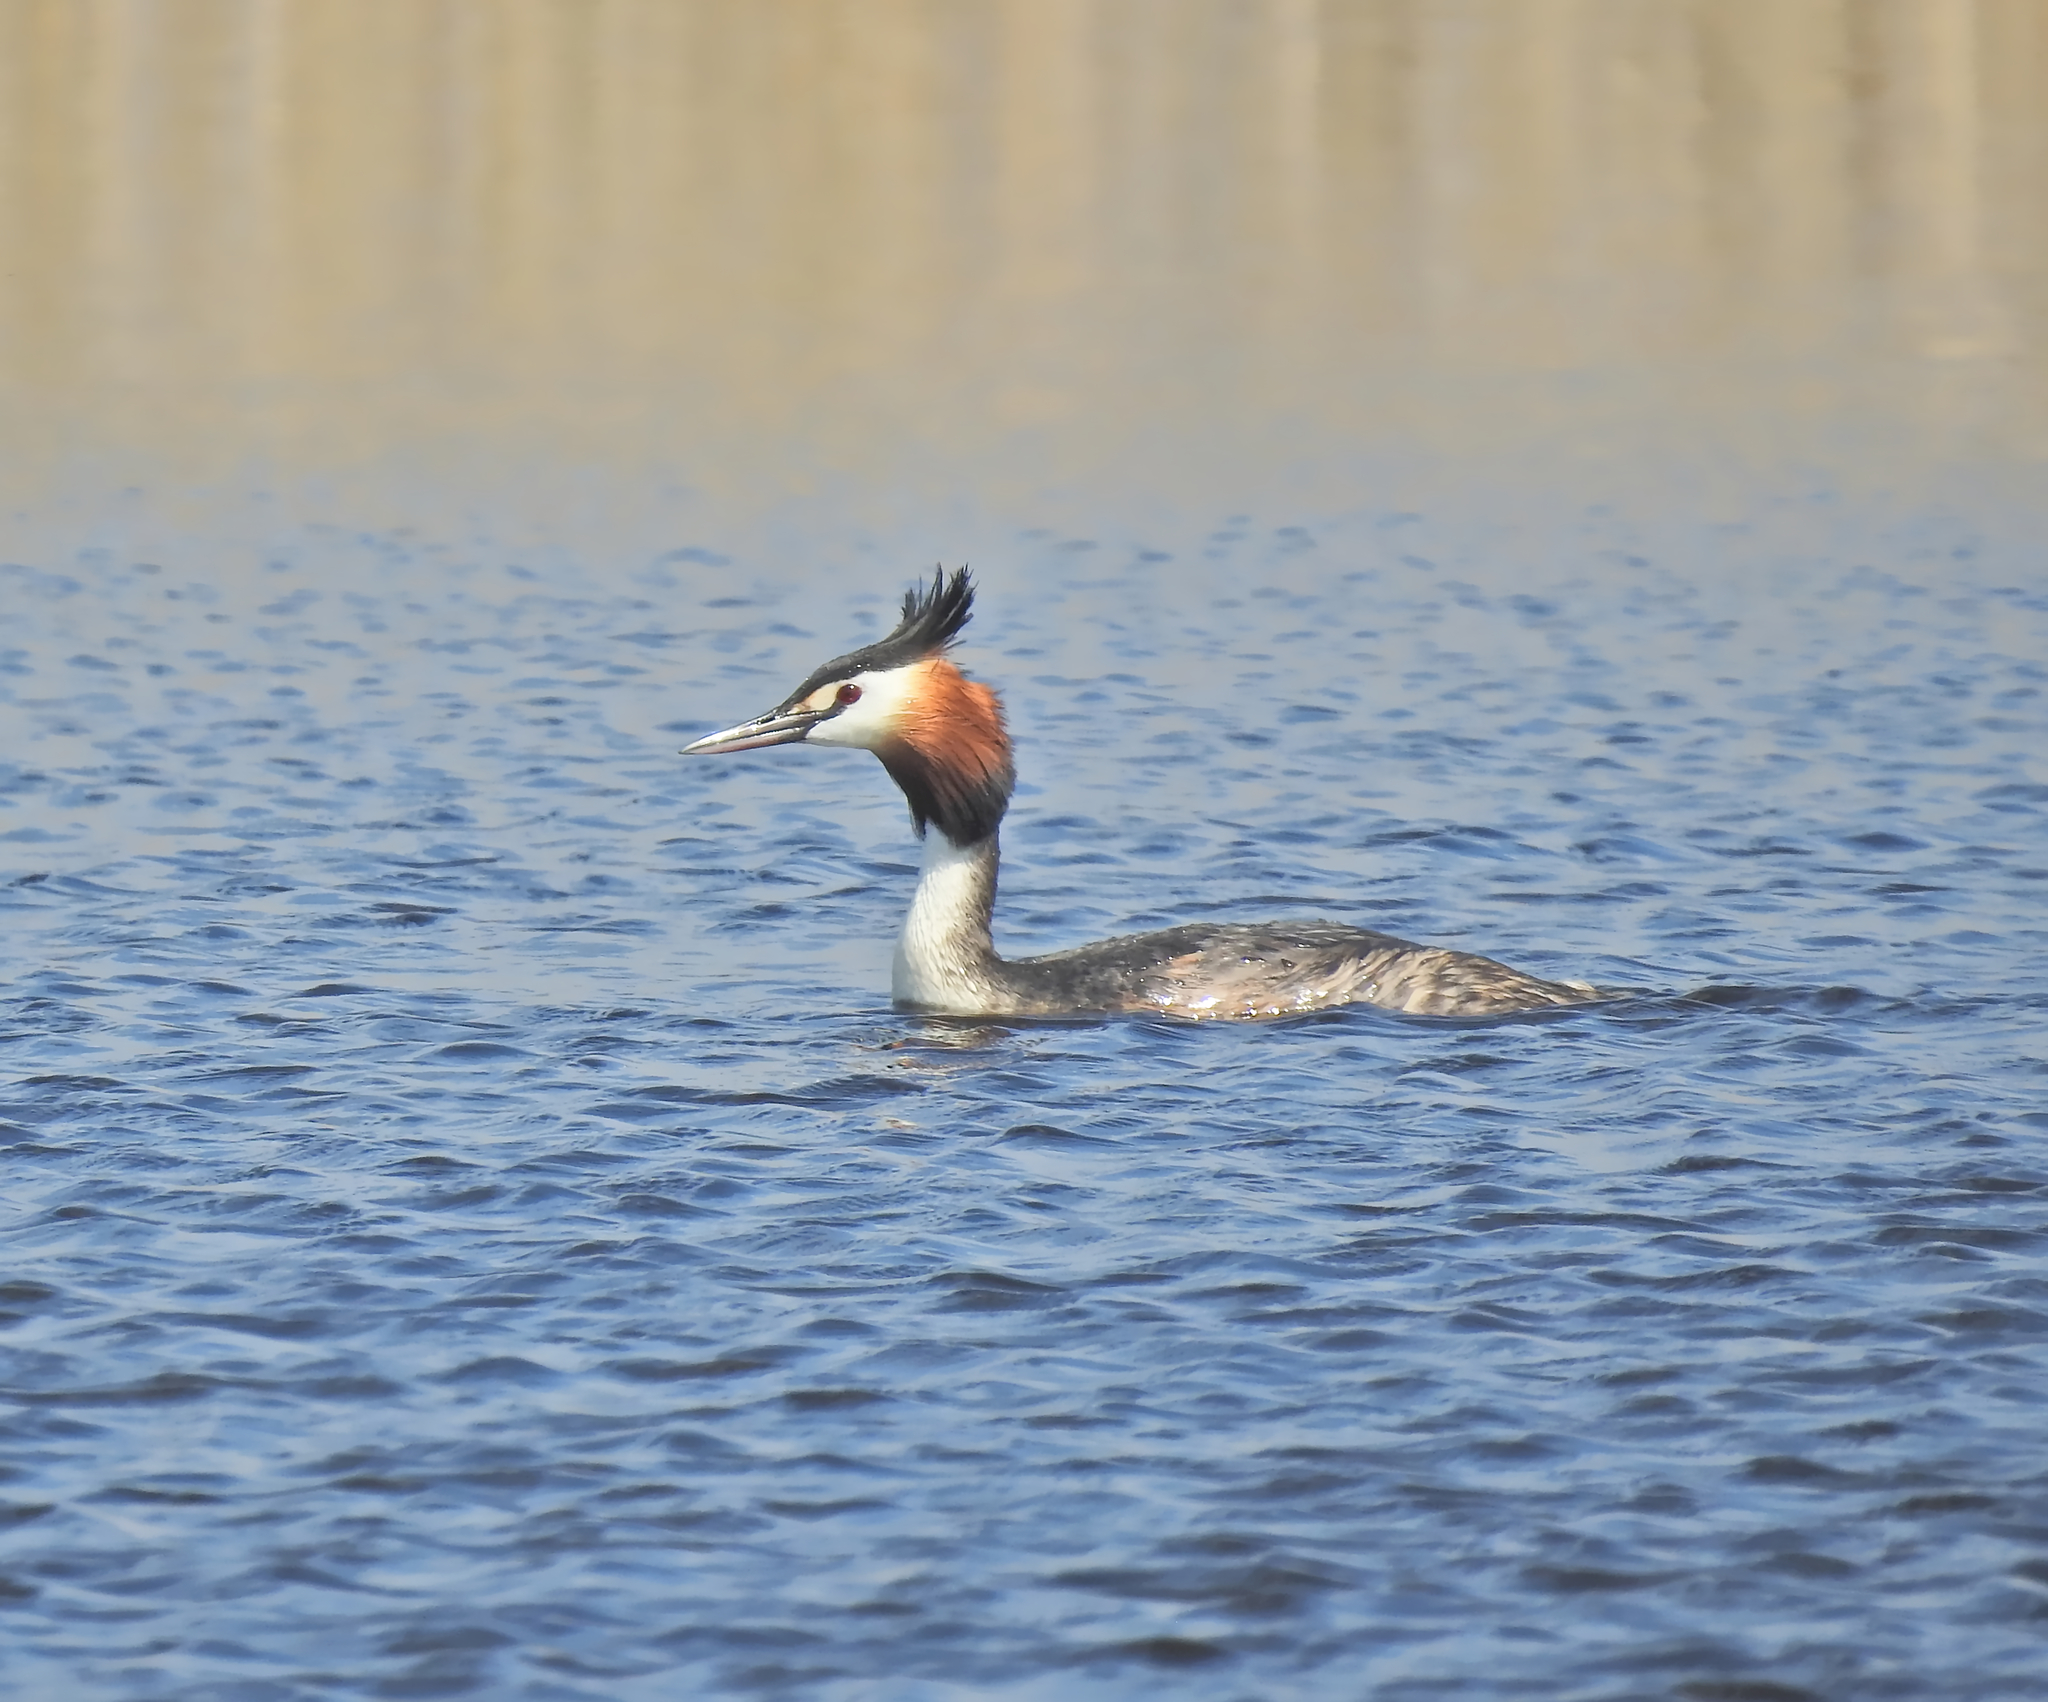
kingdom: Animalia
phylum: Chordata
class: Aves
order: Podicipediformes
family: Podicipedidae
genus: Podiceps
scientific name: Podiceps cristatus
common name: Great crested grebe
